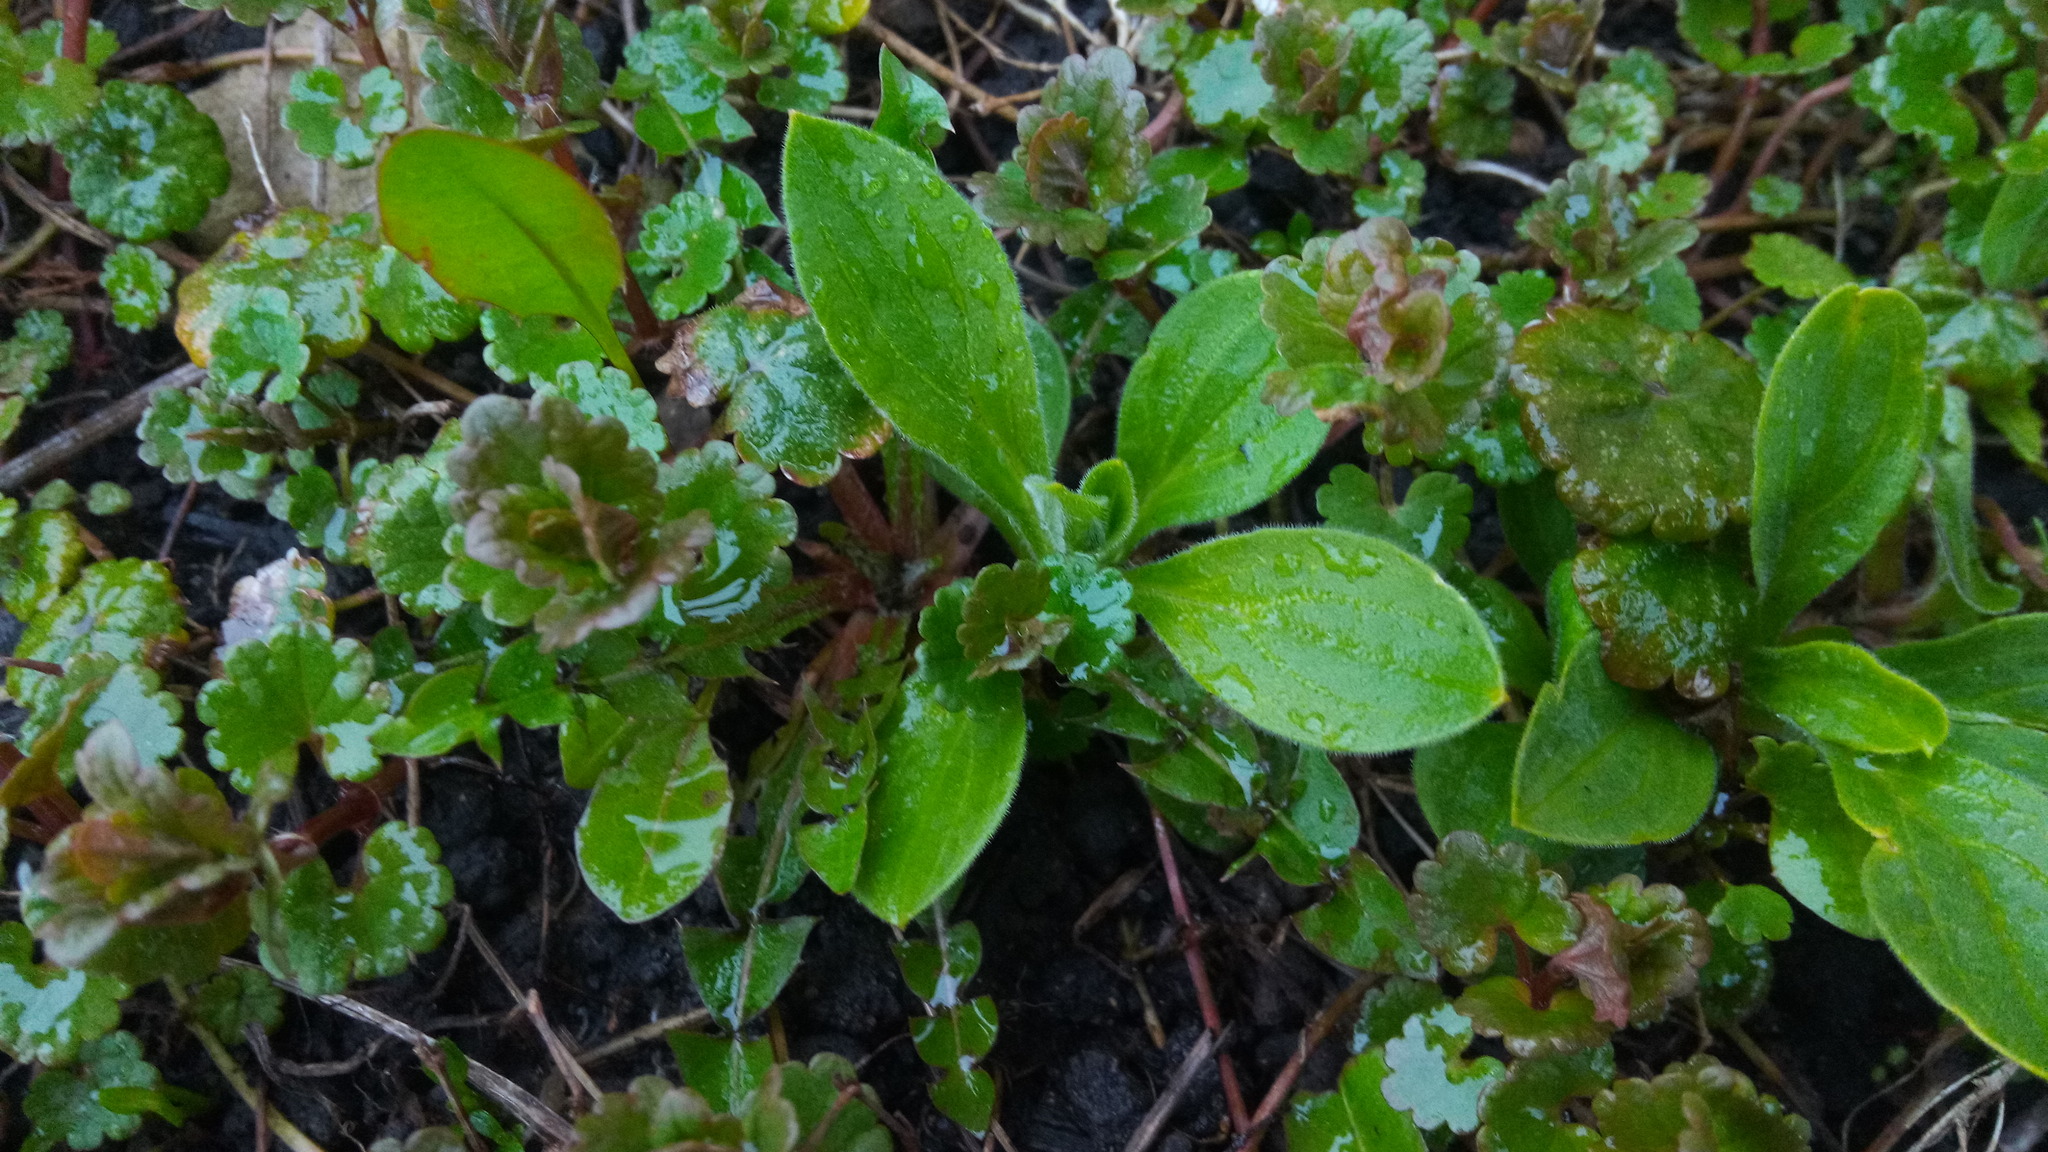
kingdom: Plantae
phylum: Tracheophyta
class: Magnoliopsida
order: Caryophyllales
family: Caryophyllaceae
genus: Silene
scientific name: Silene latifolia
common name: White campion
